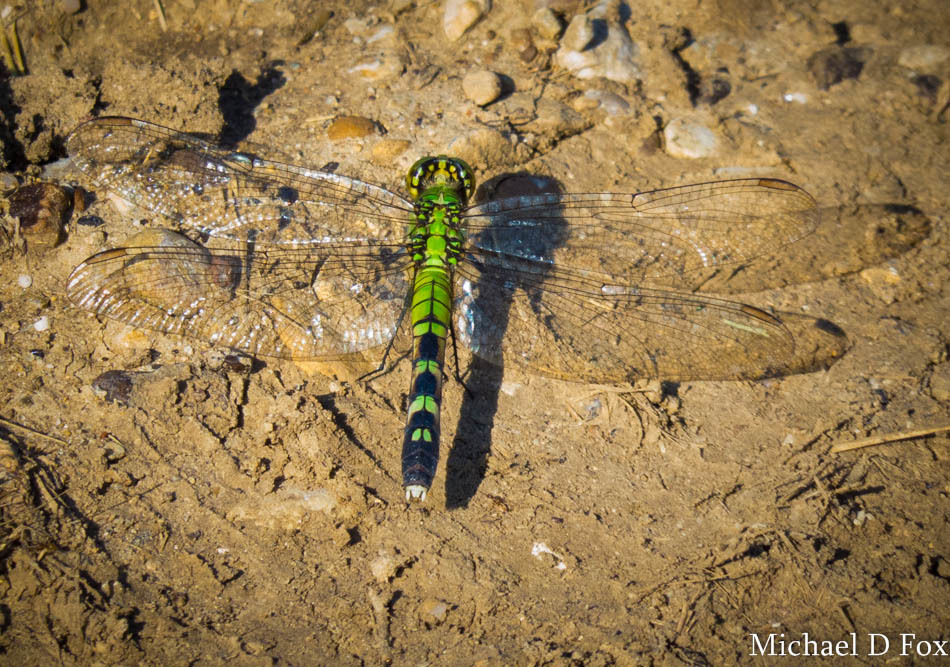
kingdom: Animalia
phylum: Arthropoda
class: Insecta
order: Odonata
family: Libellulidae
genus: Erythemis
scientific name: Erythemis simplicicollis
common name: Eastern pondhawk
